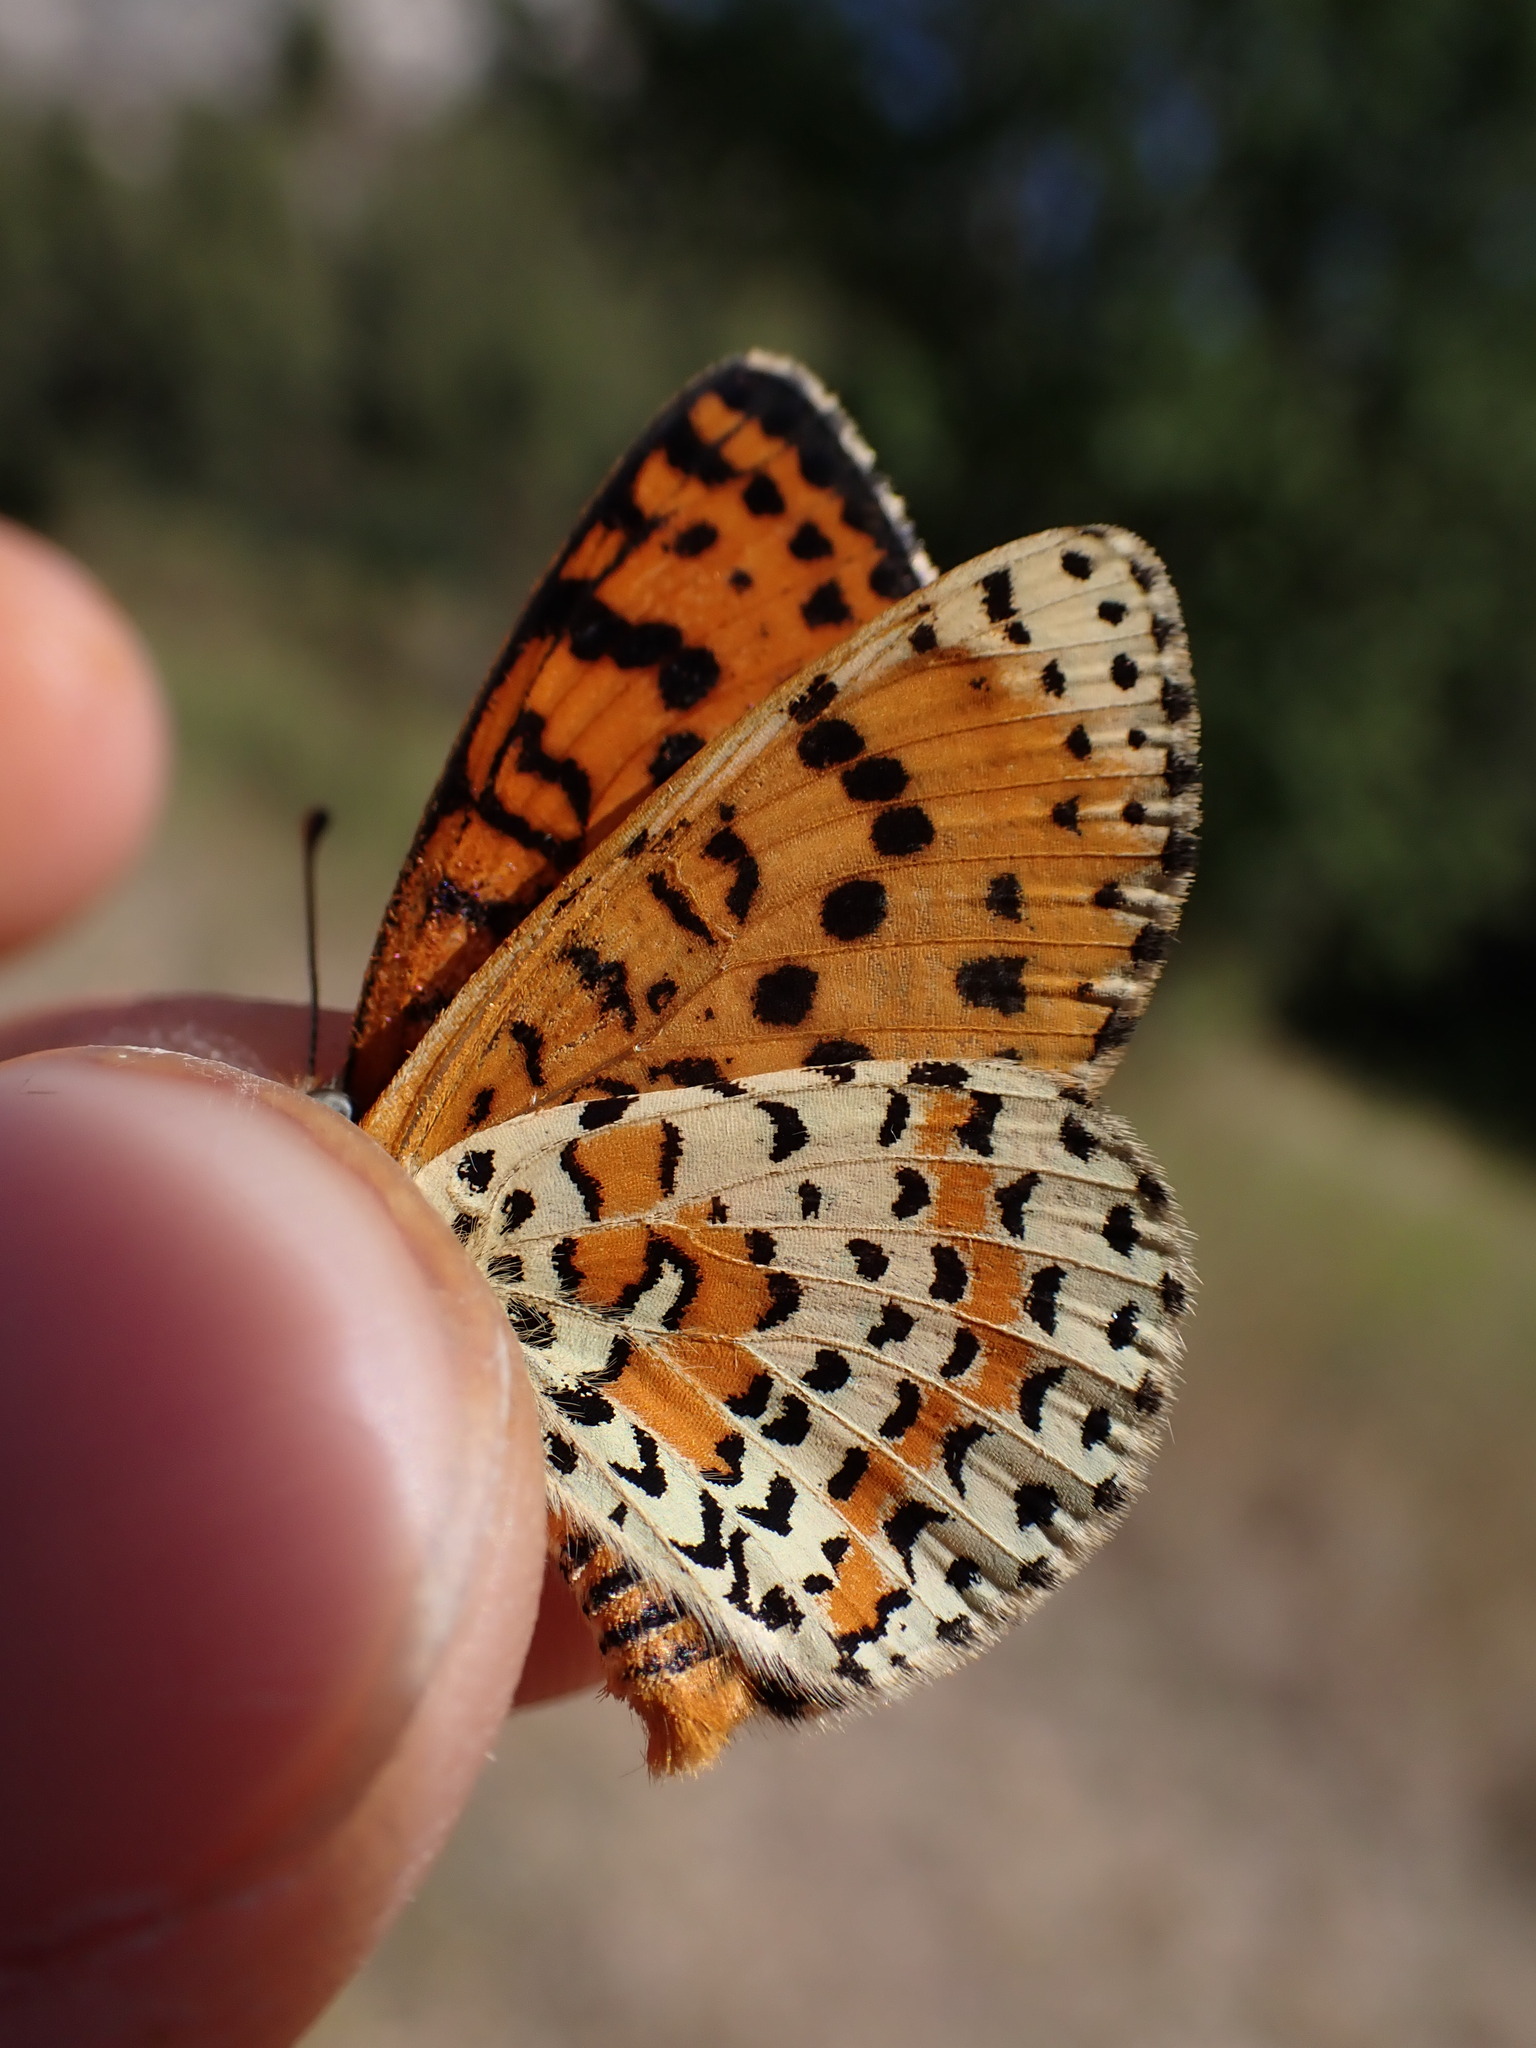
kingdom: Animalia
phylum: Arthropoda
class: Insecta
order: Lepidoptera
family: Nymphalidae
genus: Melitaea
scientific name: Melitaea didyma
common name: Spotted fritillary
